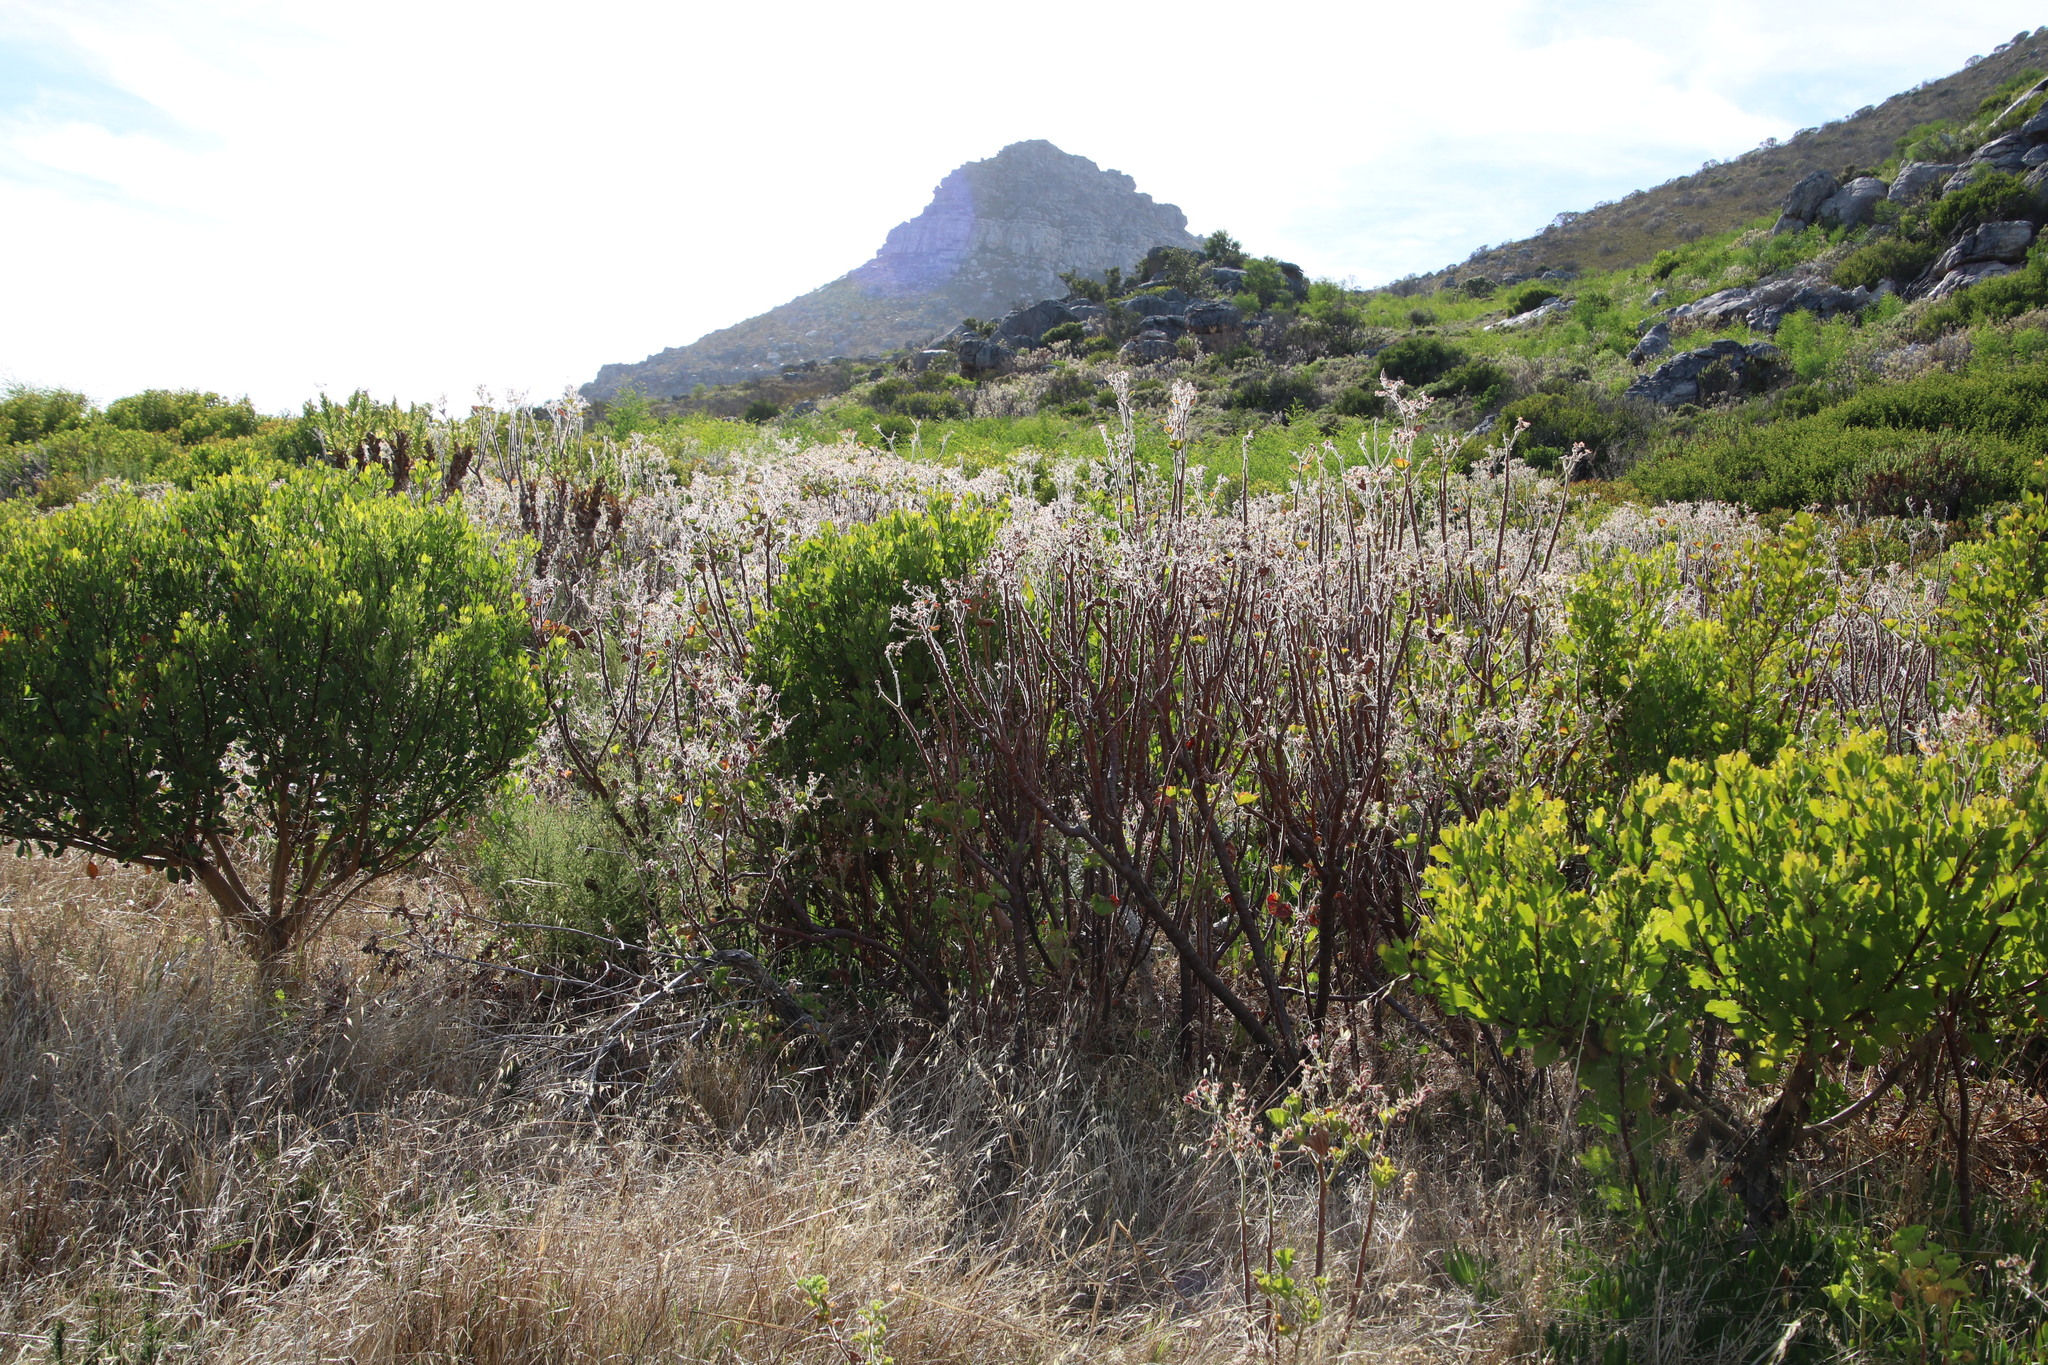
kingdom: Plantae
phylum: Tracheophyta
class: Magnoliopsida
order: Asterales
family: Asteraceae
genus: Osteospermum
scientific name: Osteospermum moniliferum
